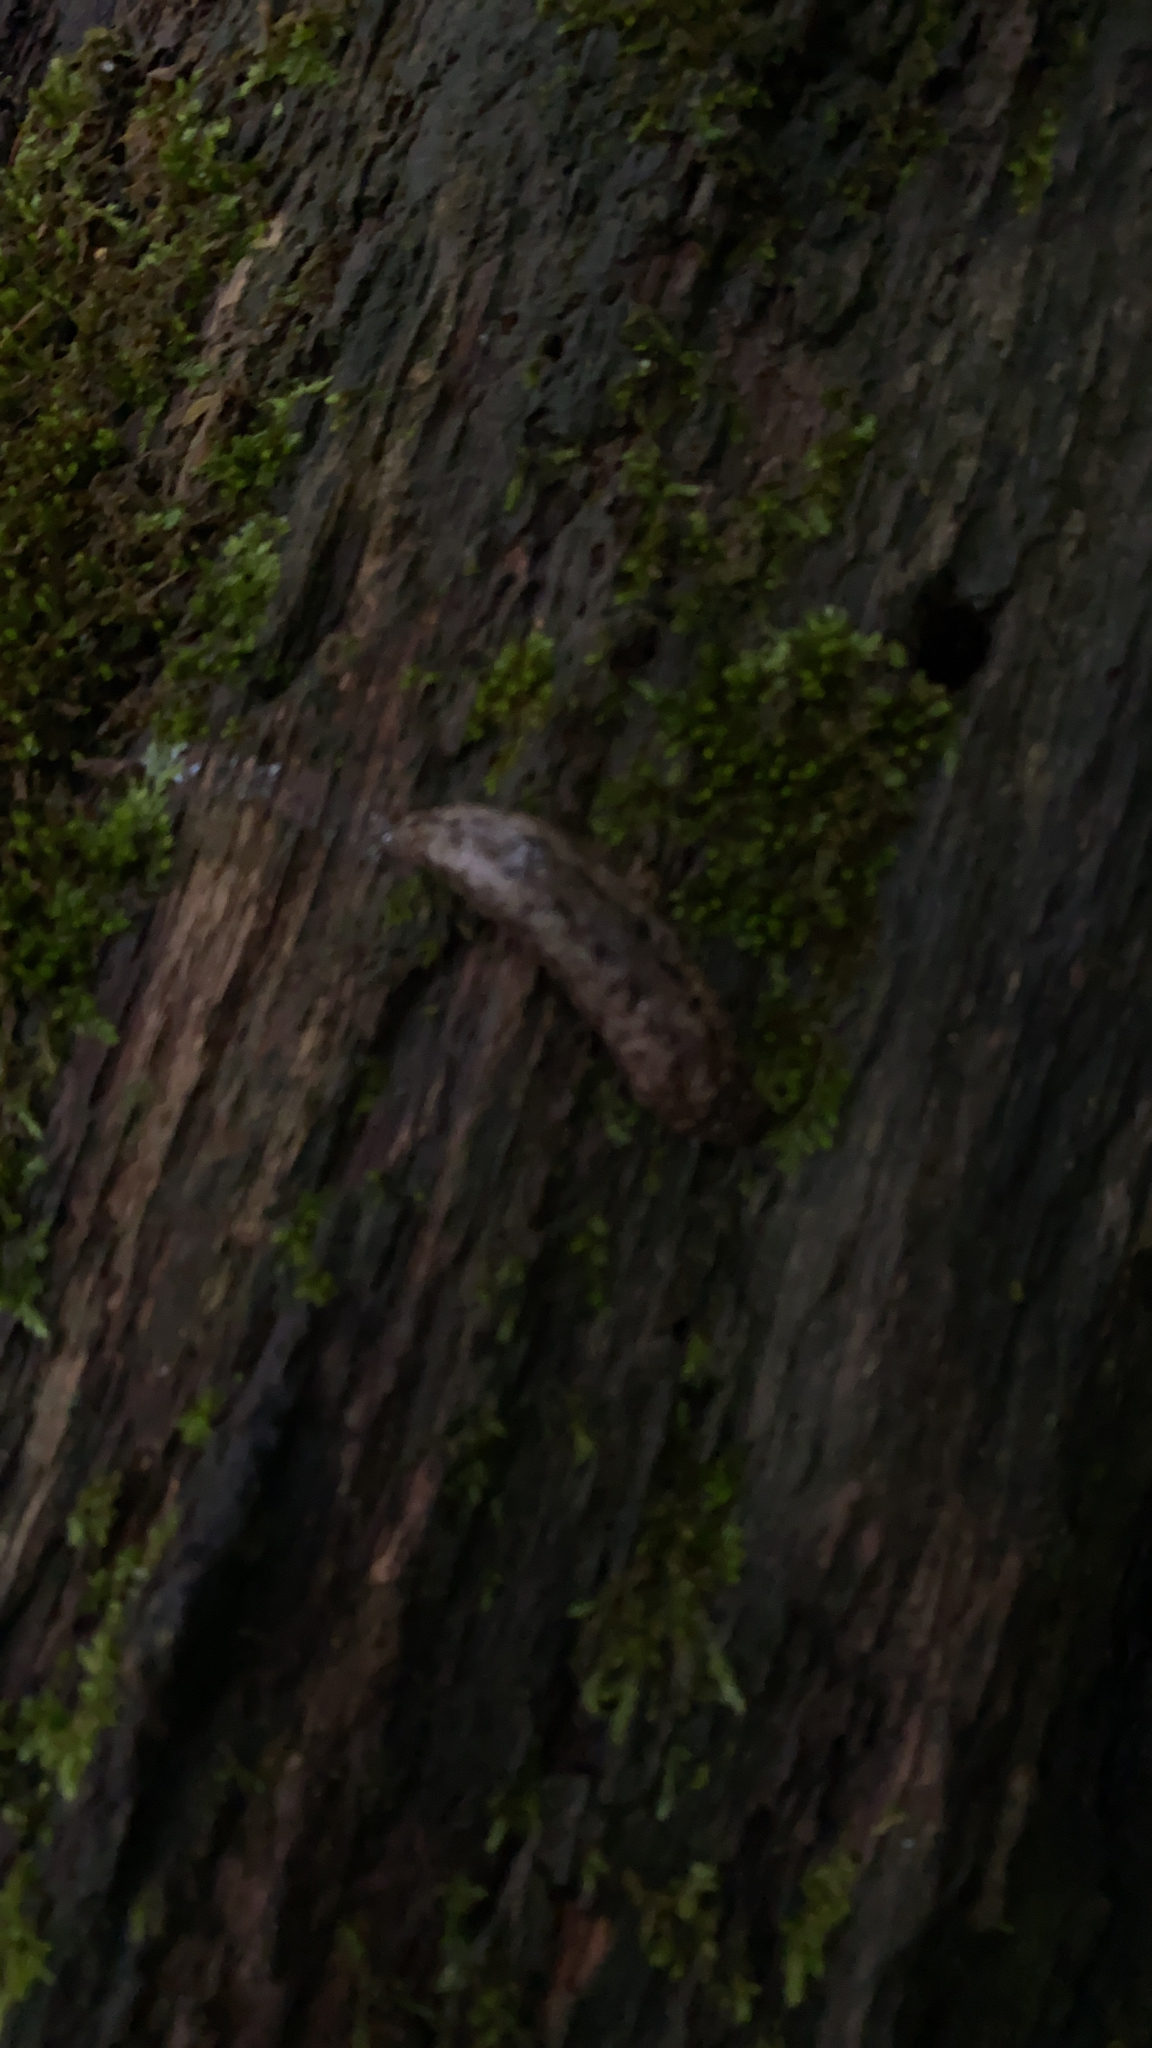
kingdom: Animalia
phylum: Mollusca
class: Gastropoda
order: Stylommatophora
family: Philomycidae
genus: Philomycus
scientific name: Philomycus carolinianus
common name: Carolina mantleslug
